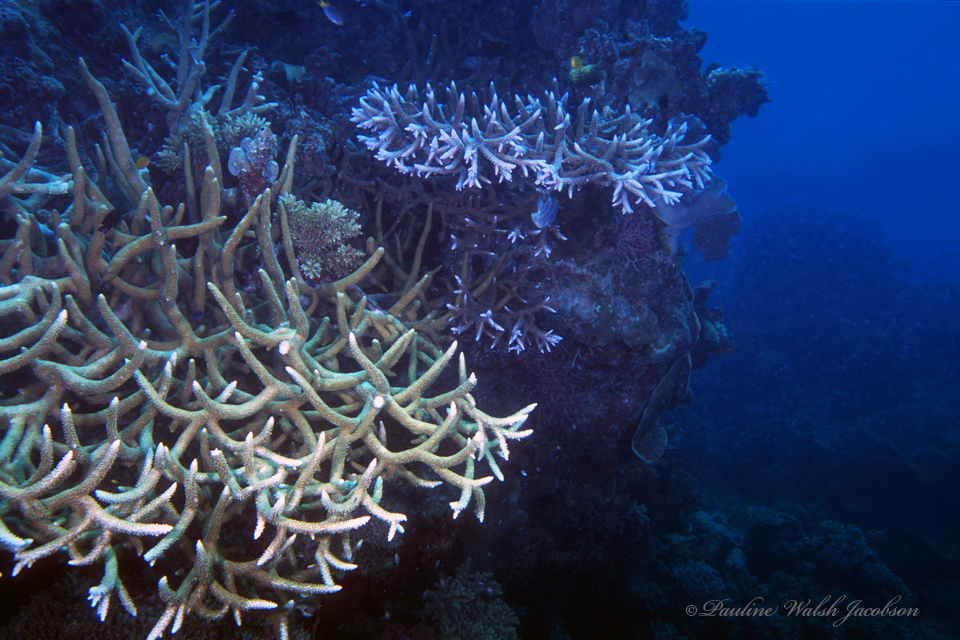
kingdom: Animalia
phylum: Cnidaria
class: Anthozoa
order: Scleractinia
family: Acroporidae
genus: Acropora
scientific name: Acropora valenciennesi
